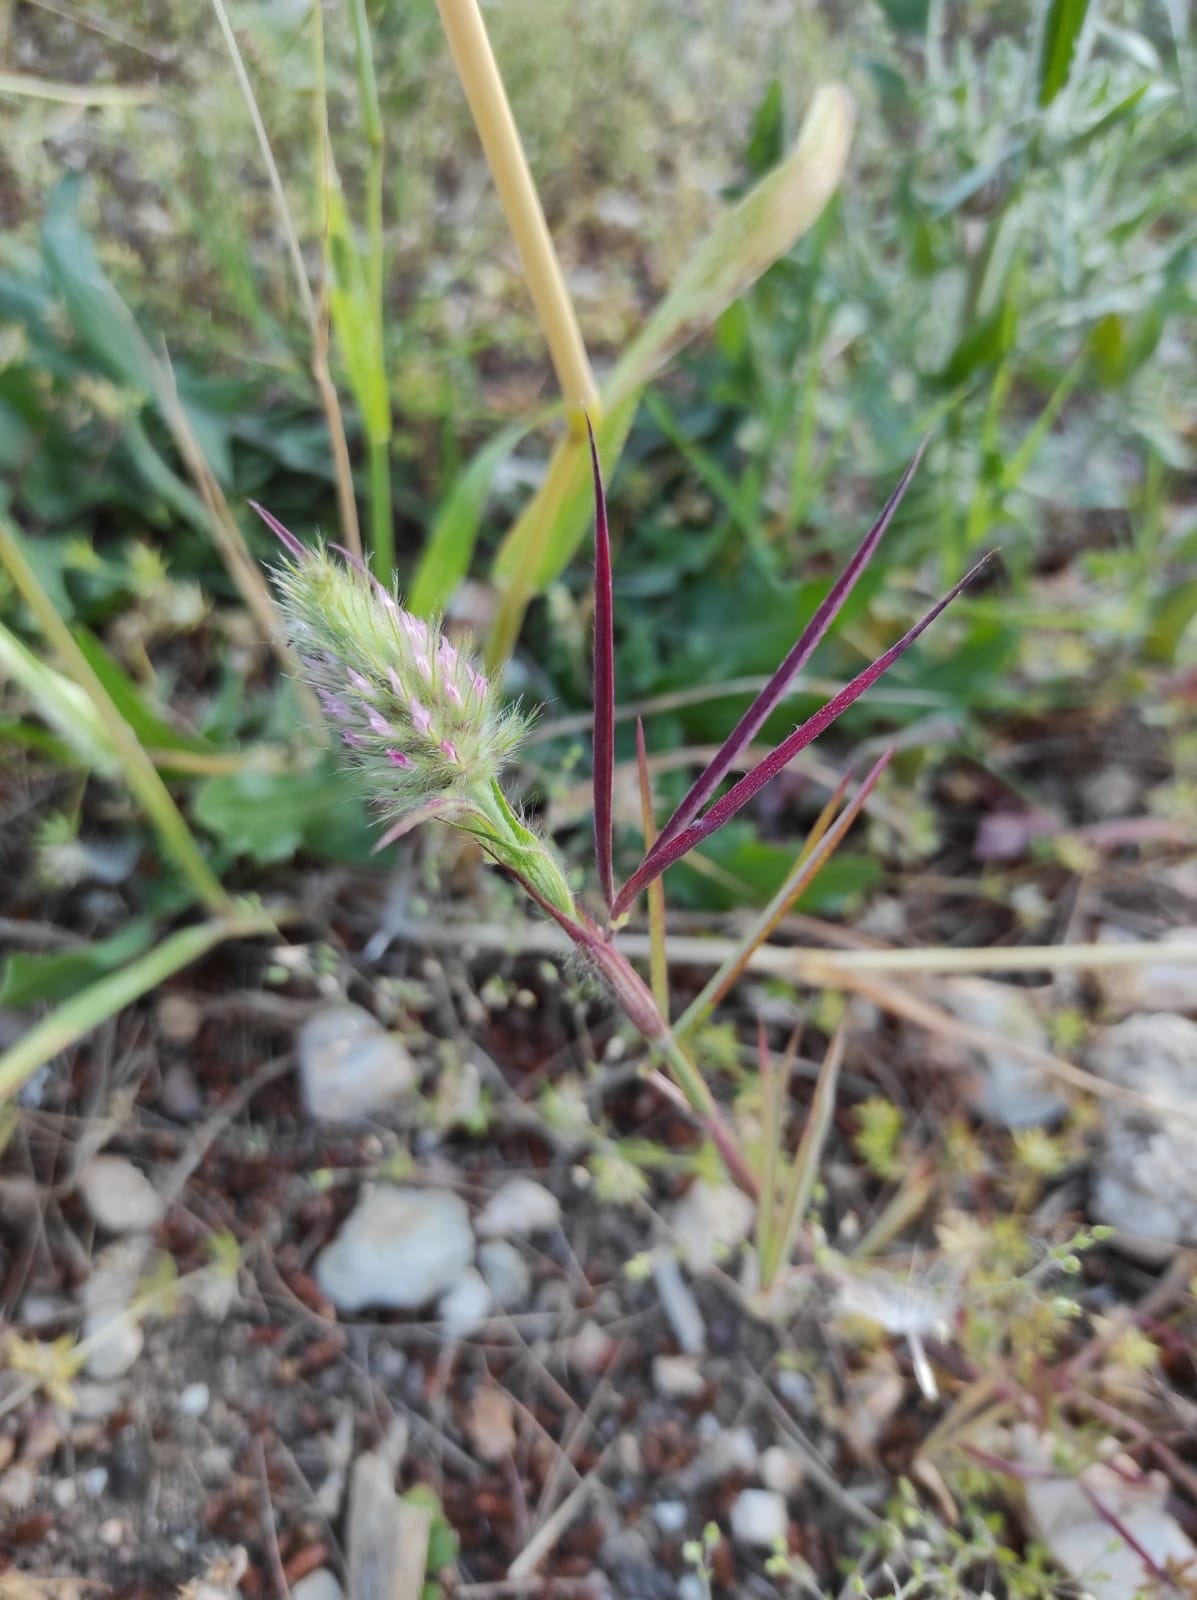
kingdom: Plantae
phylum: Tracheophyta
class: Magnoliopsida
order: Fabales
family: Fabaceae
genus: Trifolium
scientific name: Trifolium angustifolium
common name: Narrow clover
